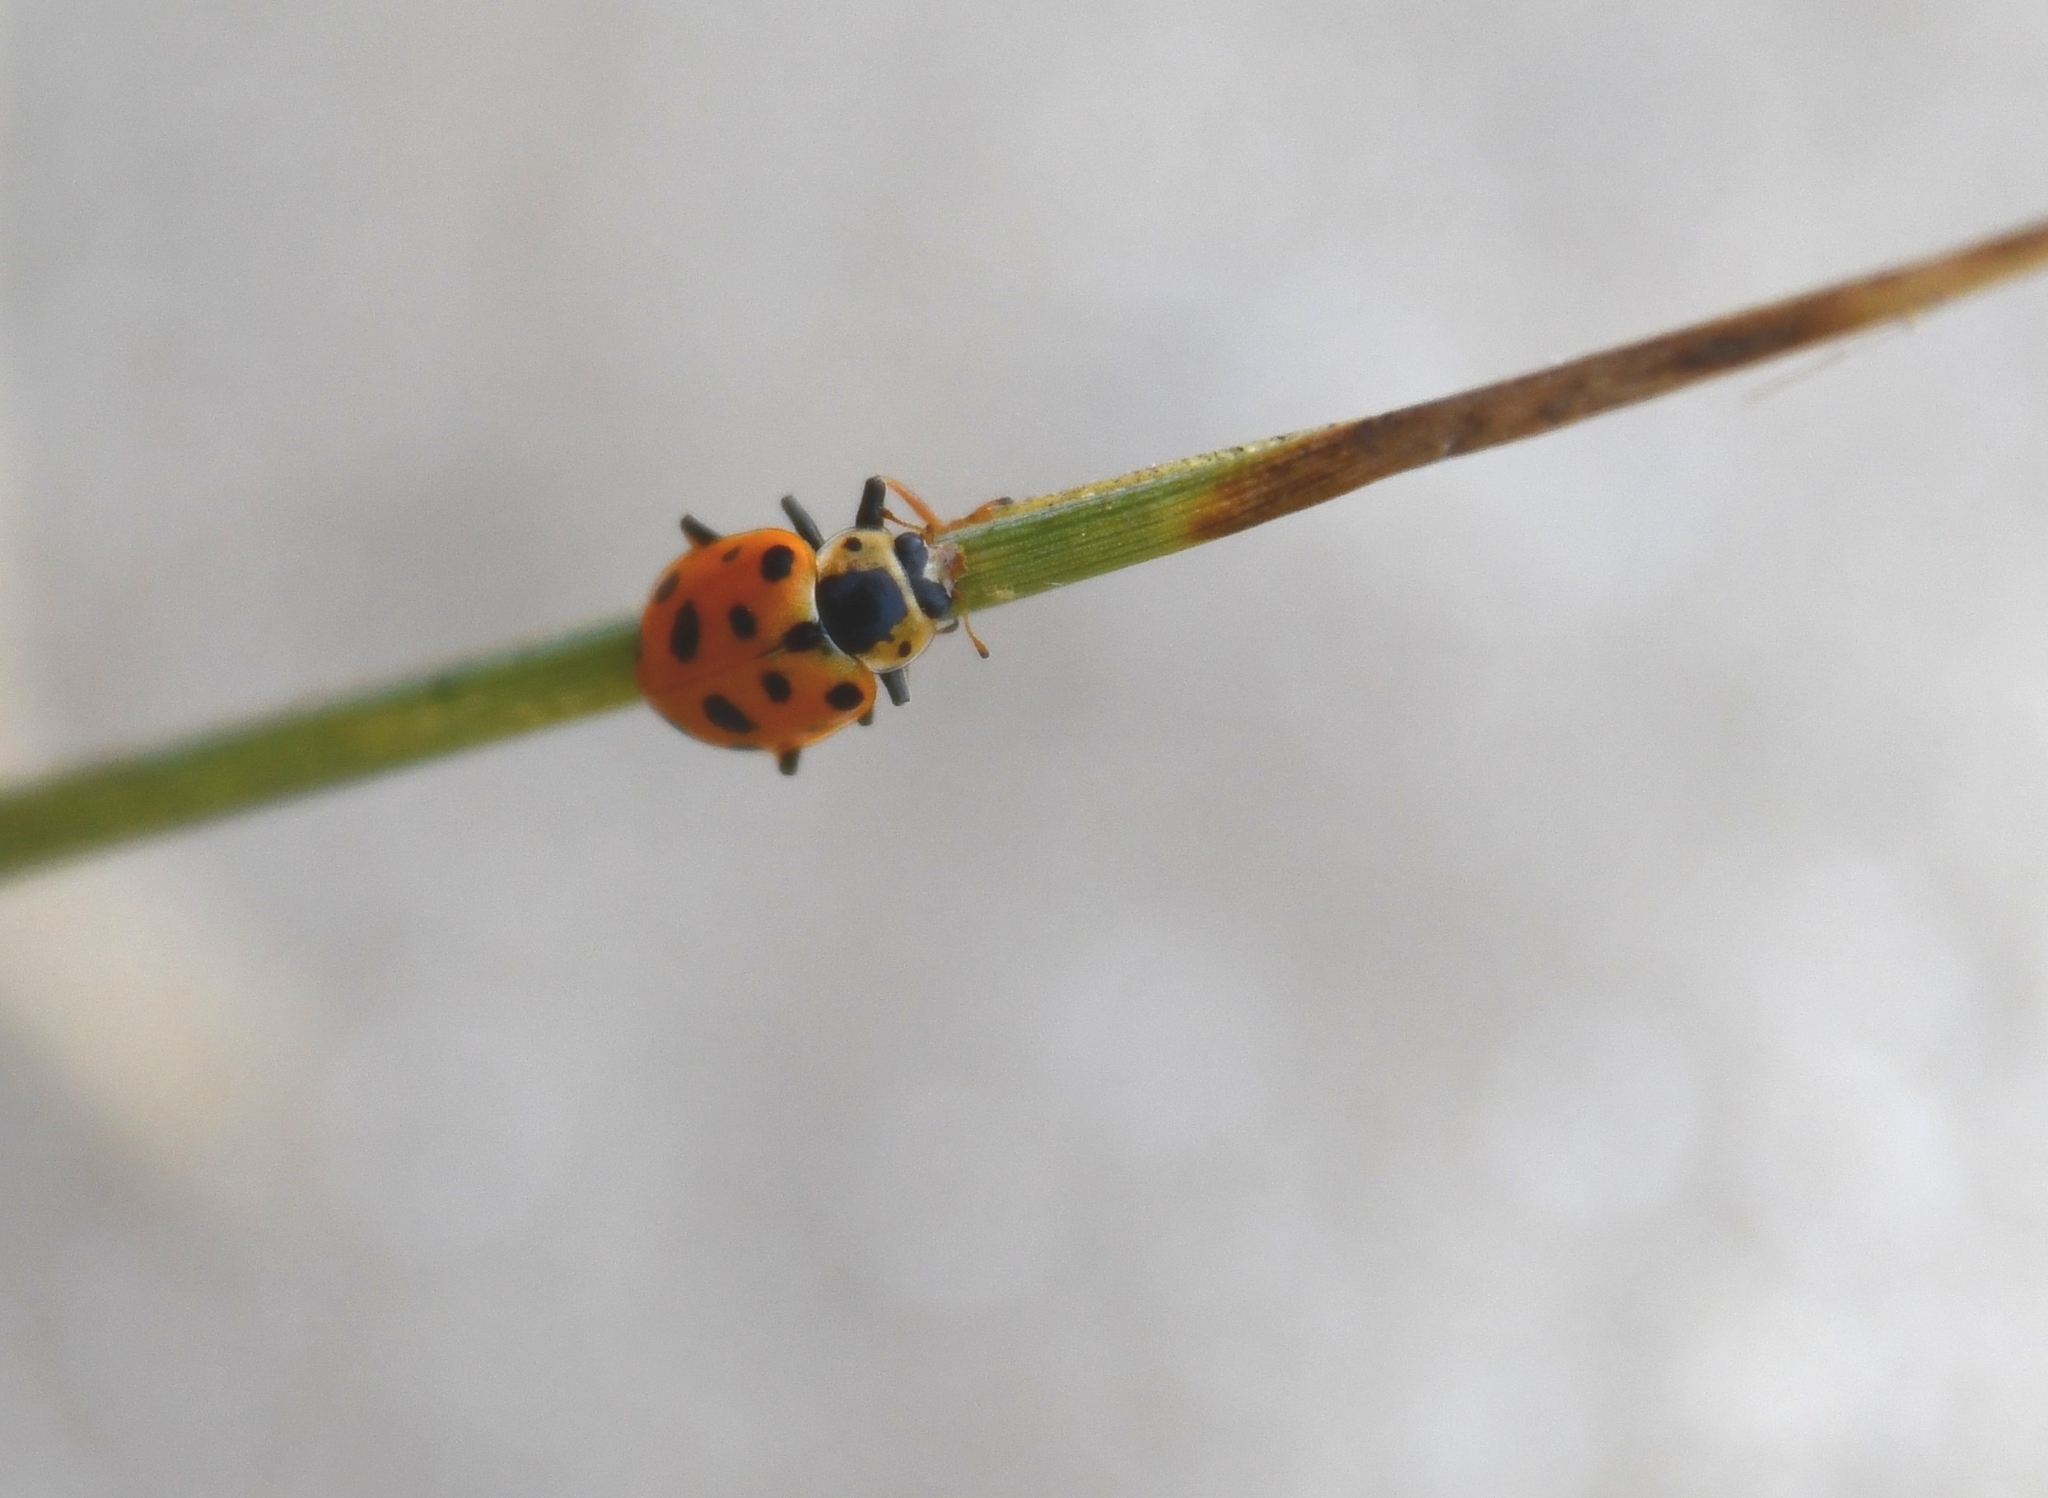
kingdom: Animalia
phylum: Arthropoda
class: Insecta
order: Coleoptera
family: Coccinellidae
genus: Hippodamia
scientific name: Hippodamia tredecimpunctata
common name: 13-spot ladybird
